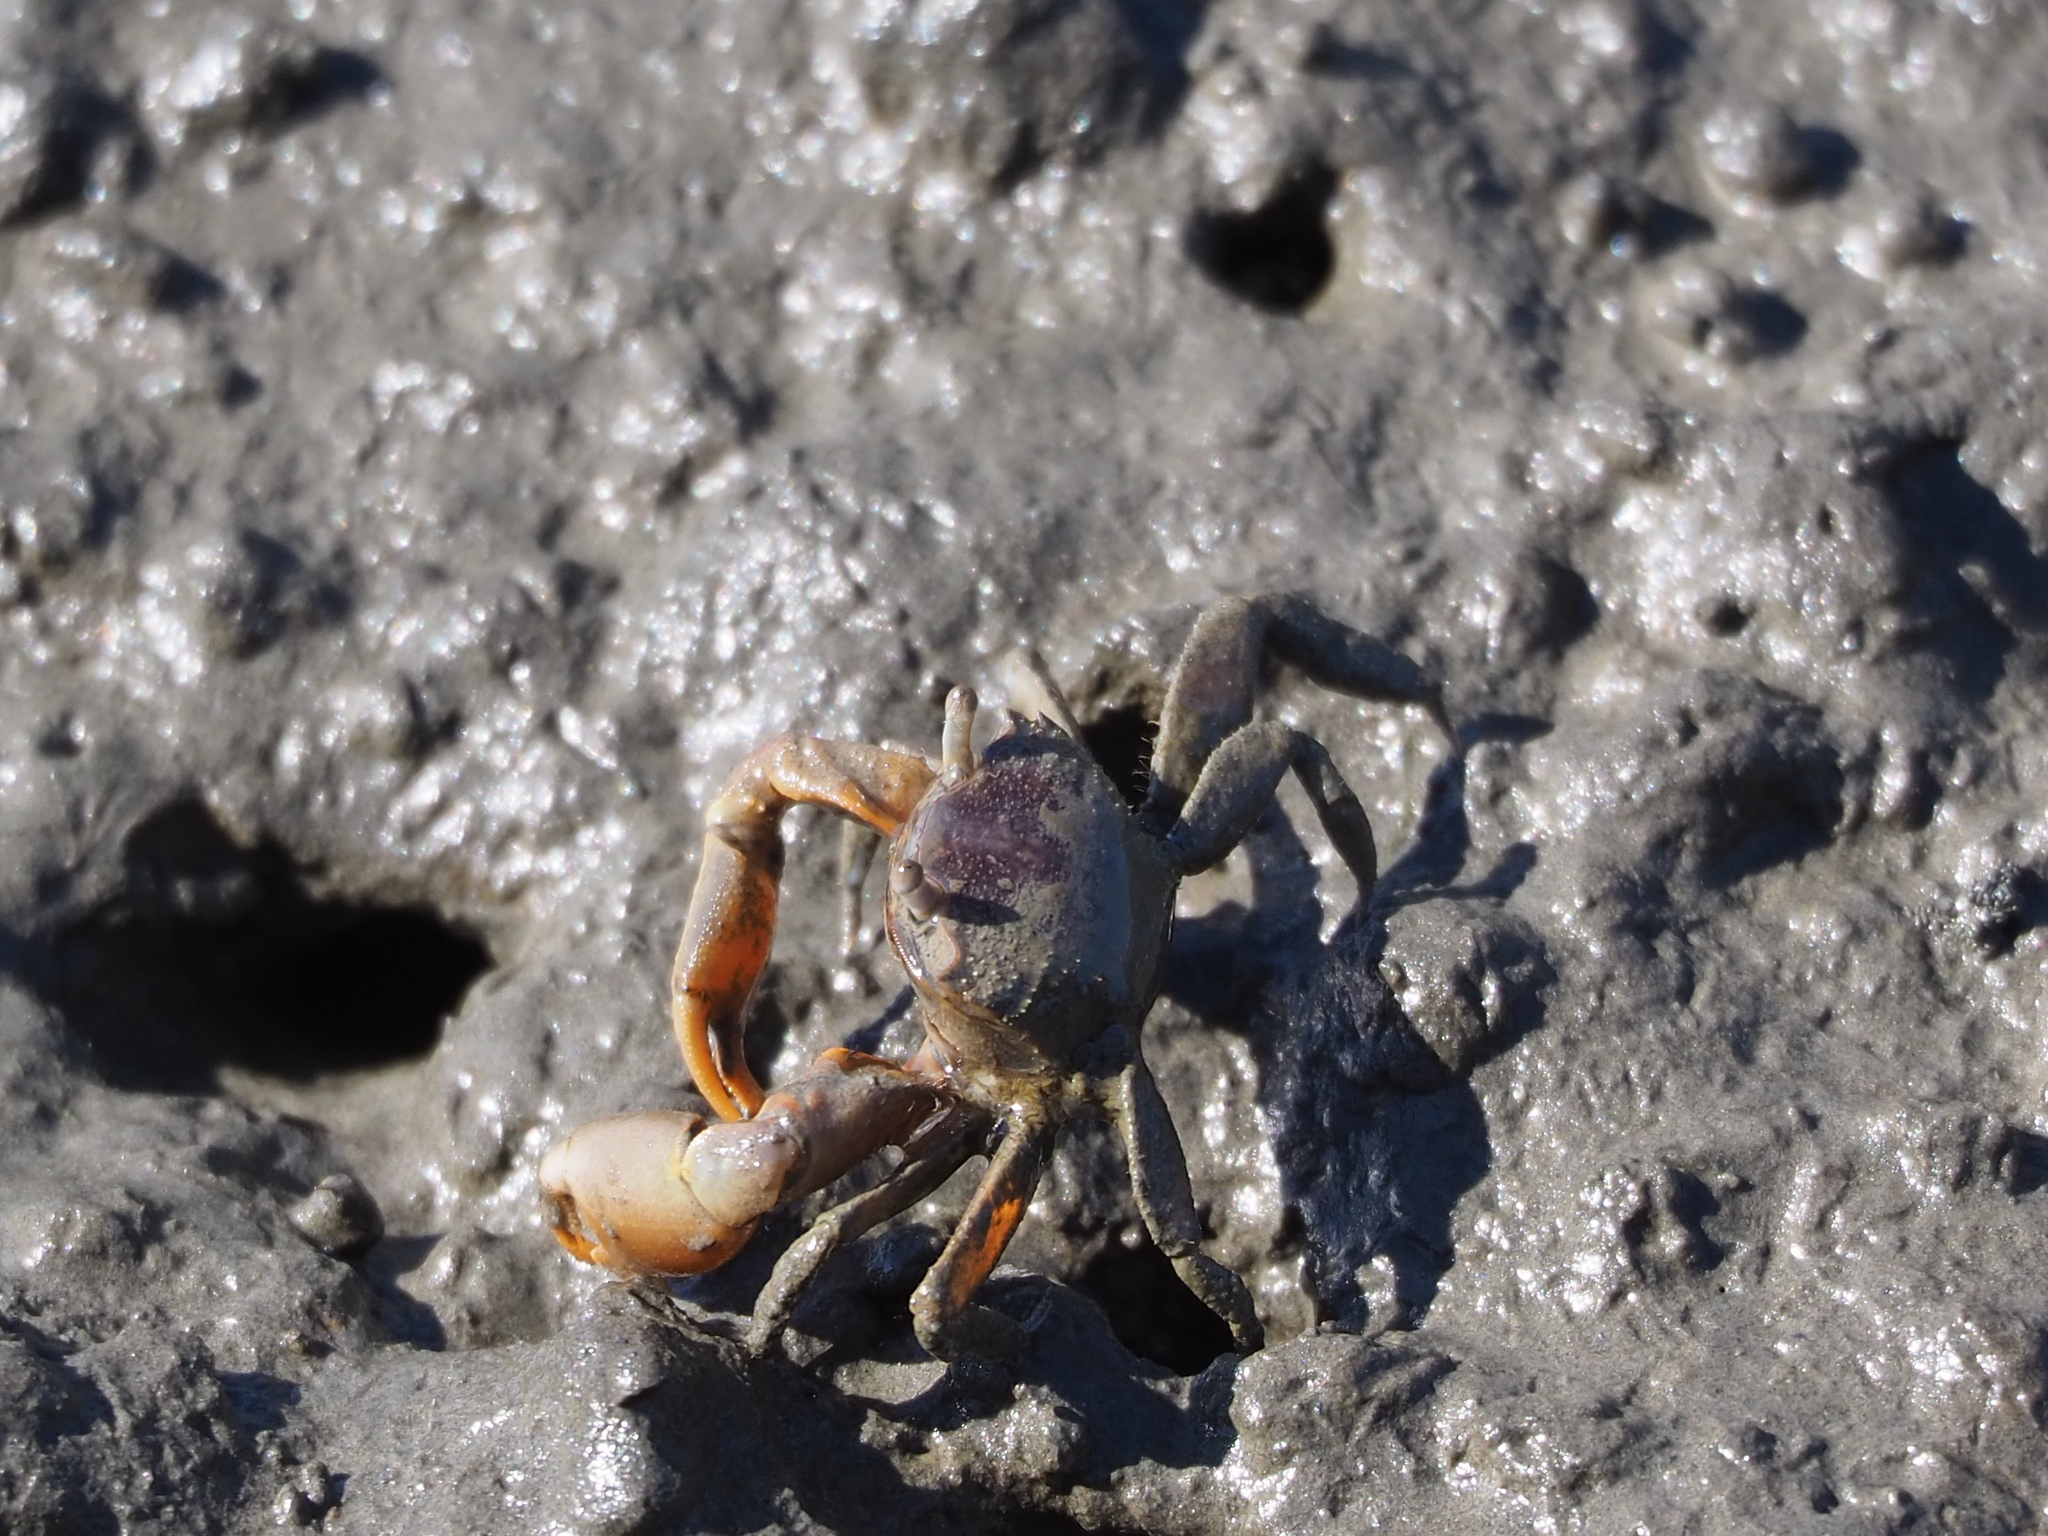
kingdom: Animalia
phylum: Arthropoda
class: Malacostraca
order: Decapoda
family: Varunidae
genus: Metaplax
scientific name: Metaplax elegans
